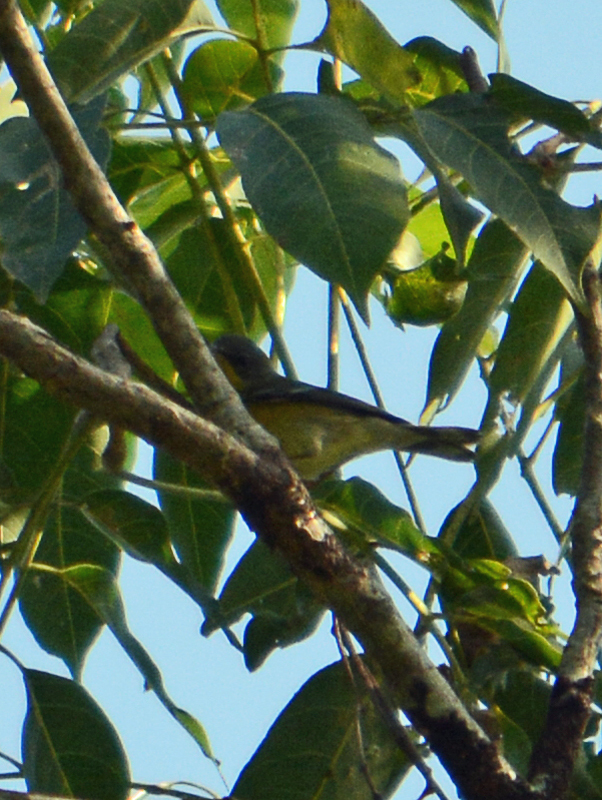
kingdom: Animalia
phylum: Chordata
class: Aves
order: Passeriformes
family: Parulidae
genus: Setophaga
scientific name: Setophaga pitiayumi
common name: Tropical parula
